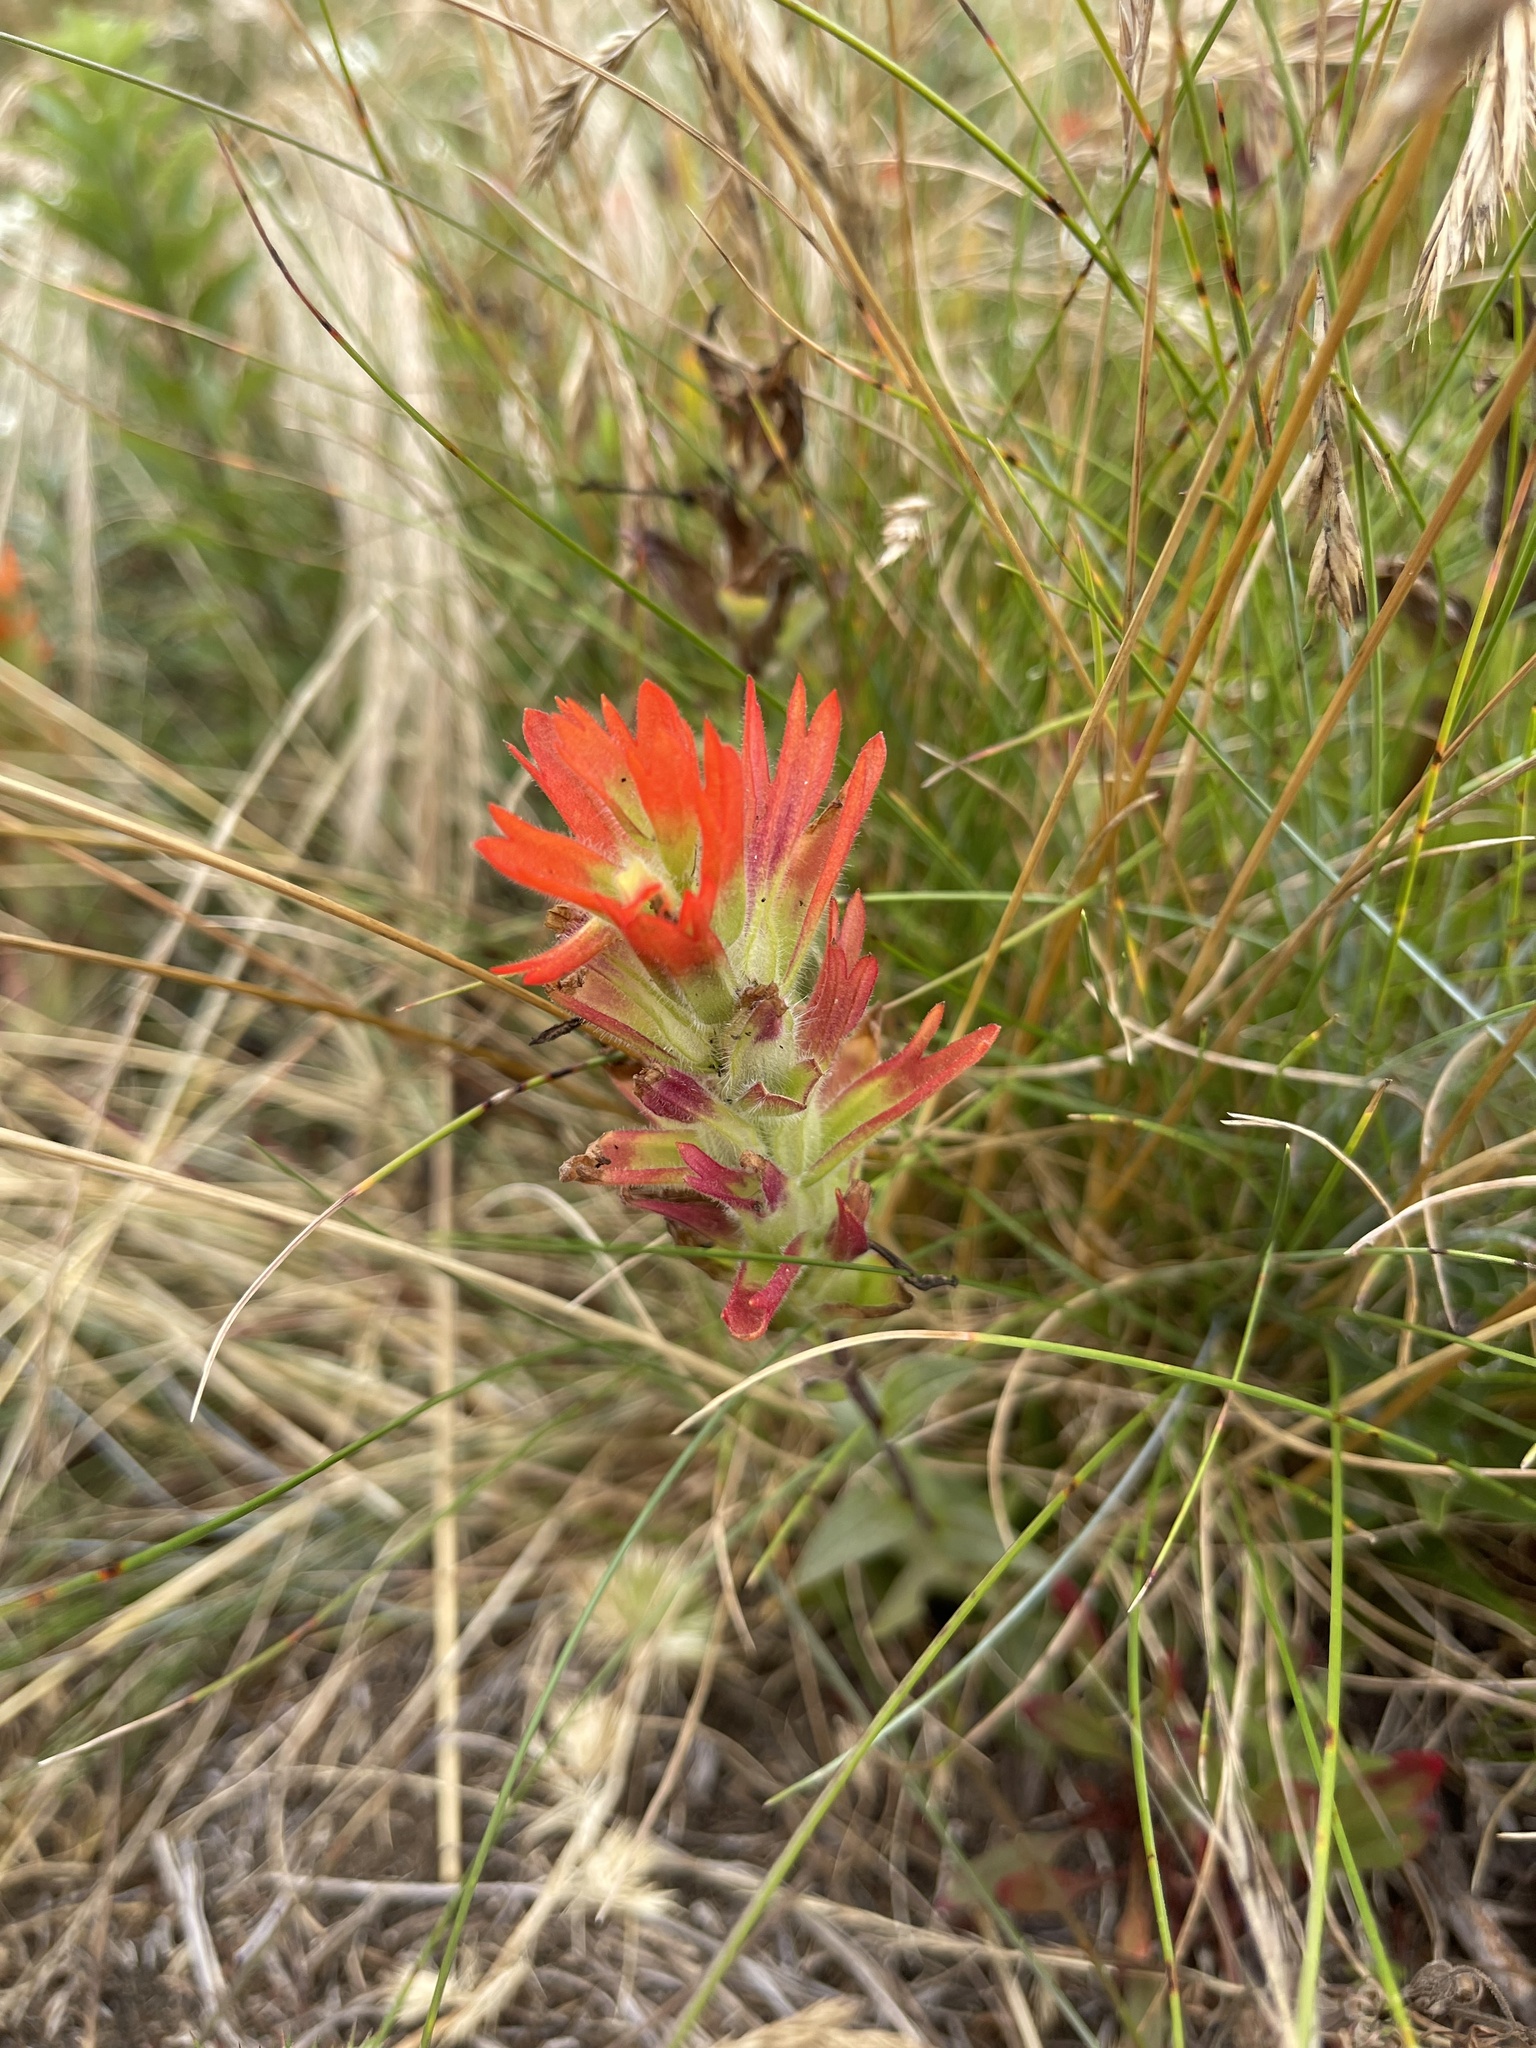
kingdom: Plantae
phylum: Tracheophyta
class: Magnoliopsida
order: Lamiales
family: Orobanchaceae
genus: Castilleja
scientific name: Castilleja litoralis
